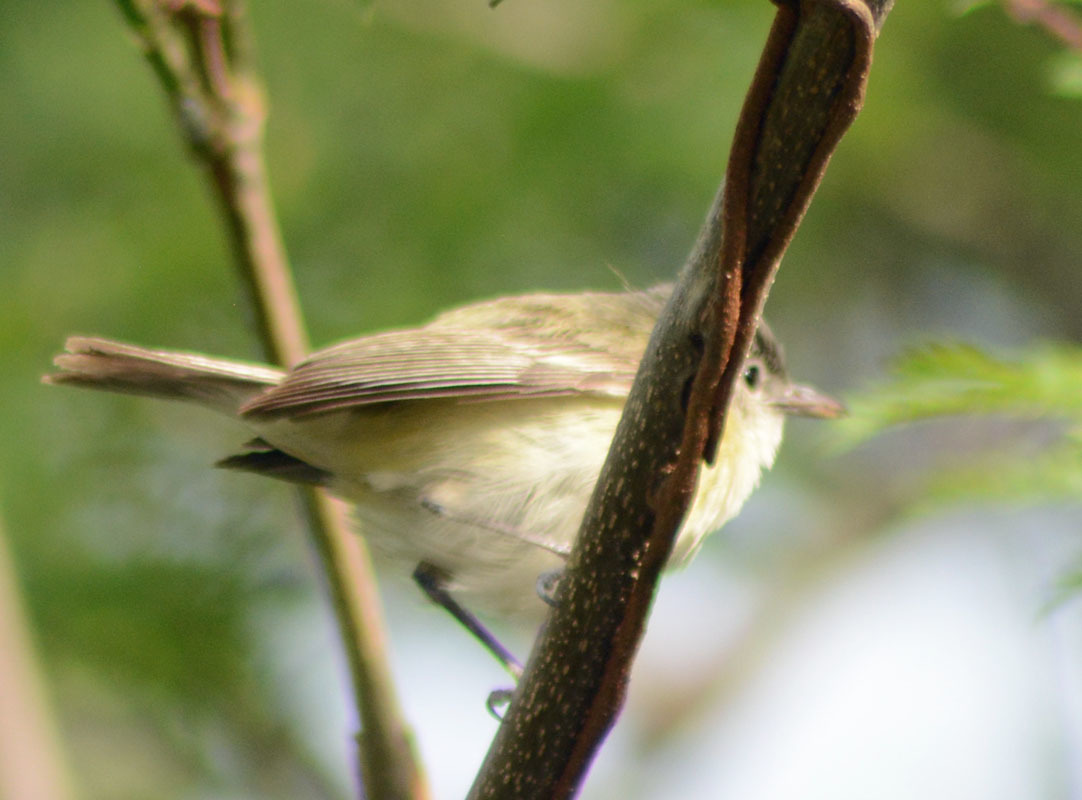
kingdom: Animalia
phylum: Chordata
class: Aves
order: Passeriformes
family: Vireonidae
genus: Vireo
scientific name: Vireo bellii
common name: Bell's vireo
